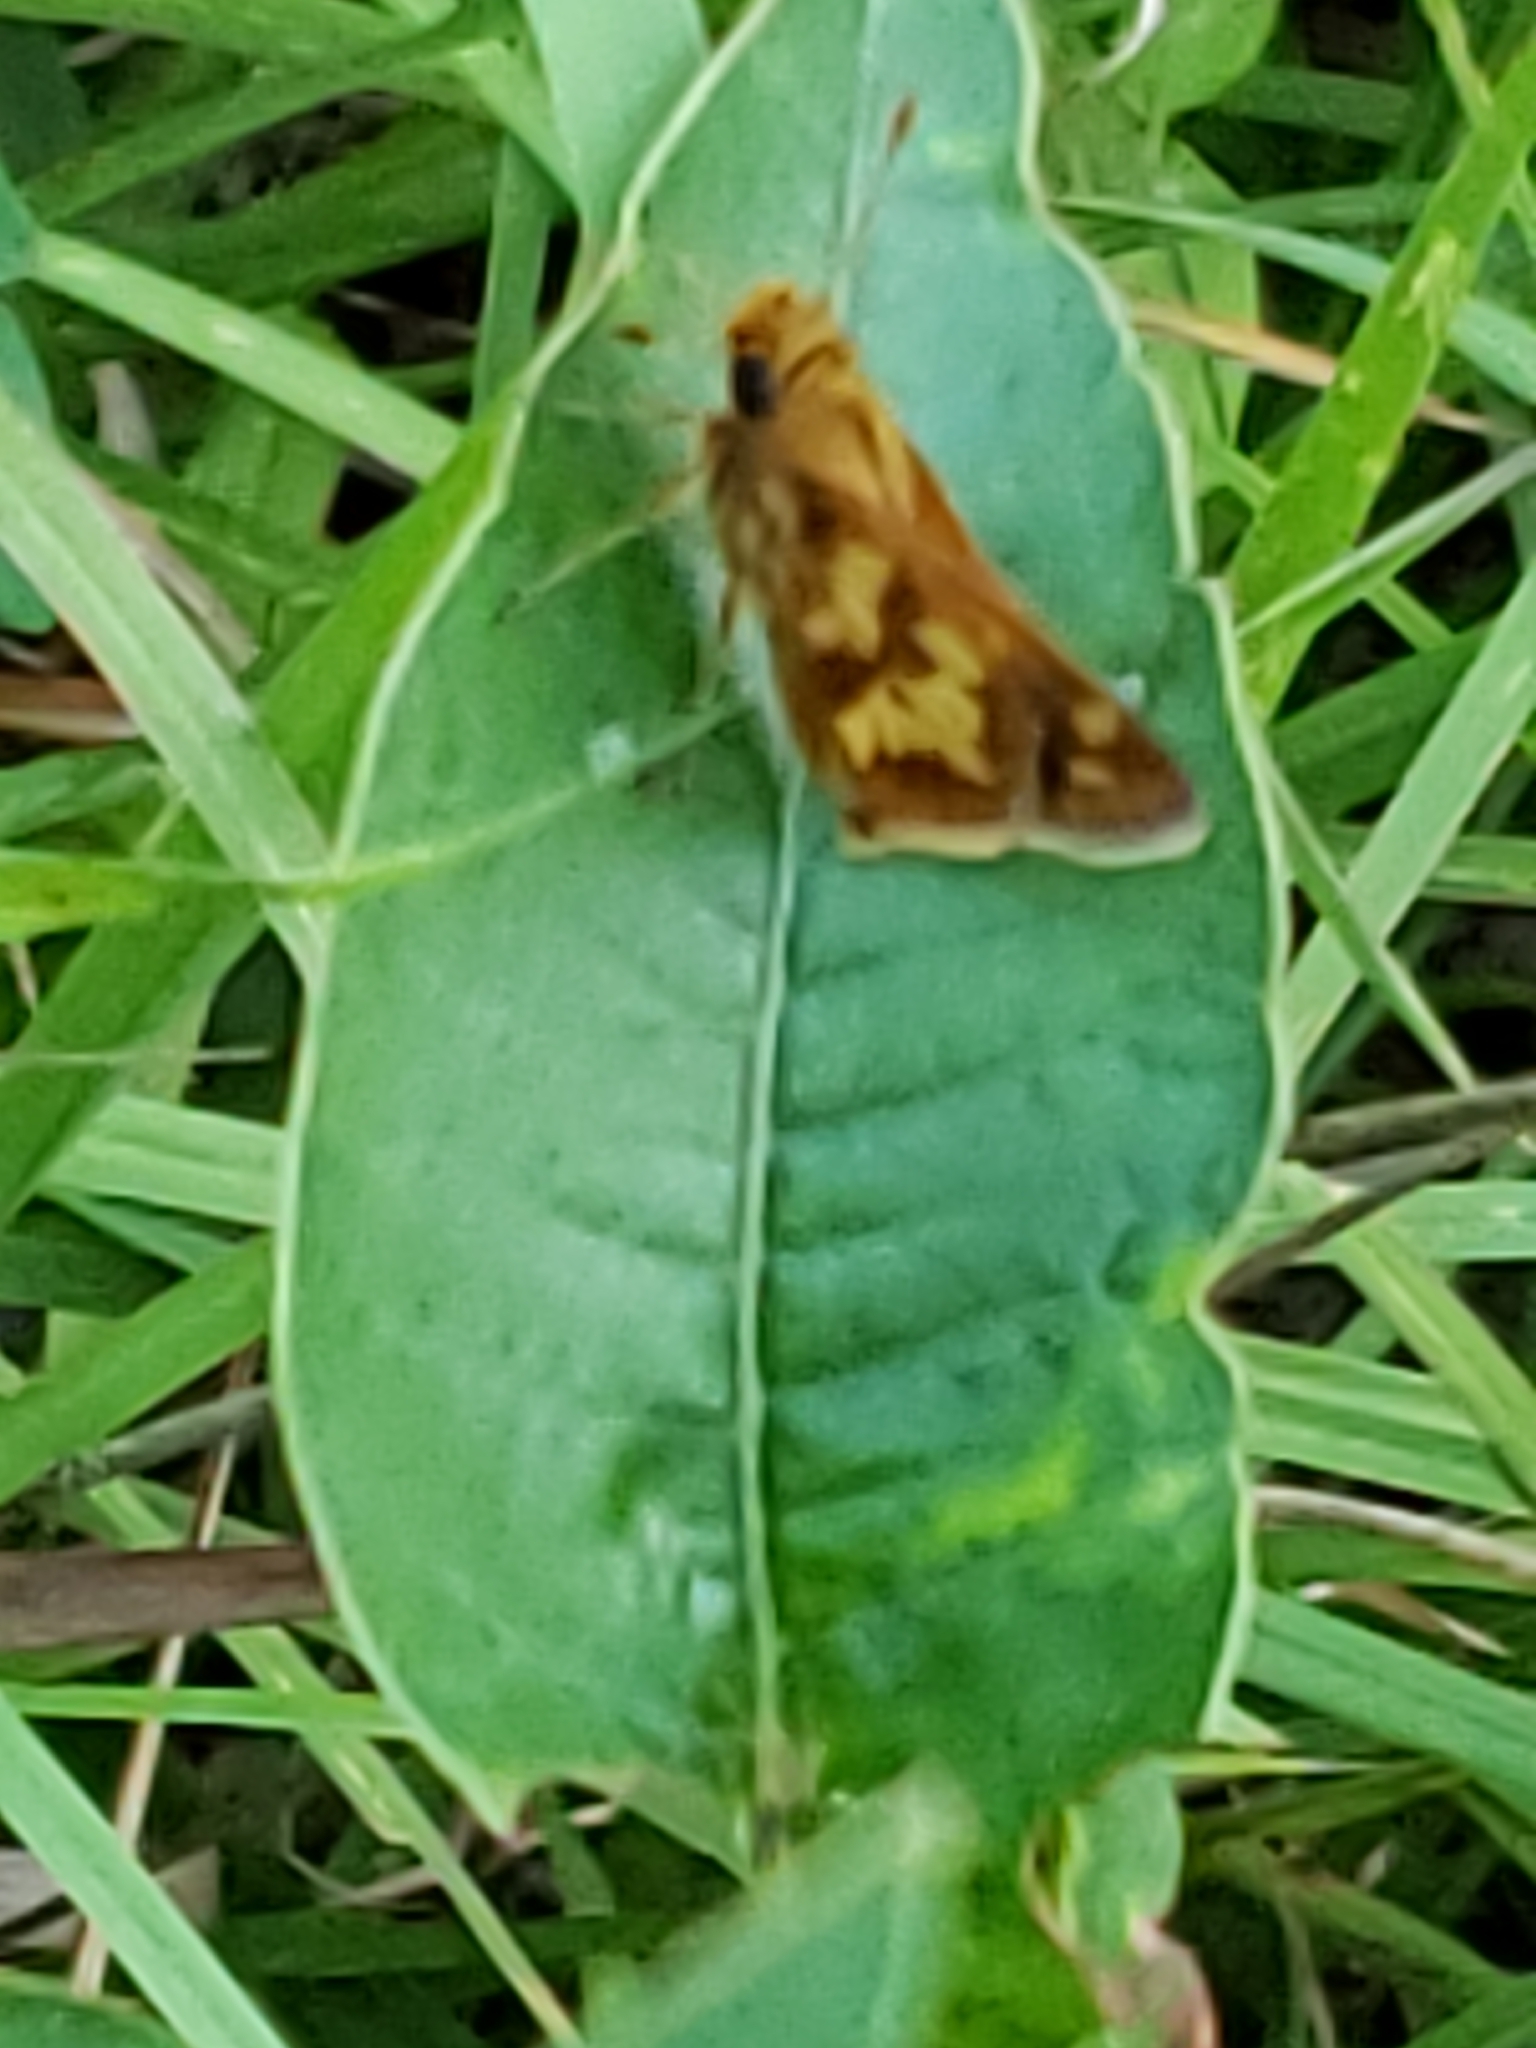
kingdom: Animalia
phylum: Arthropoda
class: Insecta
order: Lepidoptera
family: Hesperiidae
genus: Polites
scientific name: Polites coras
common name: Peck's skipper
